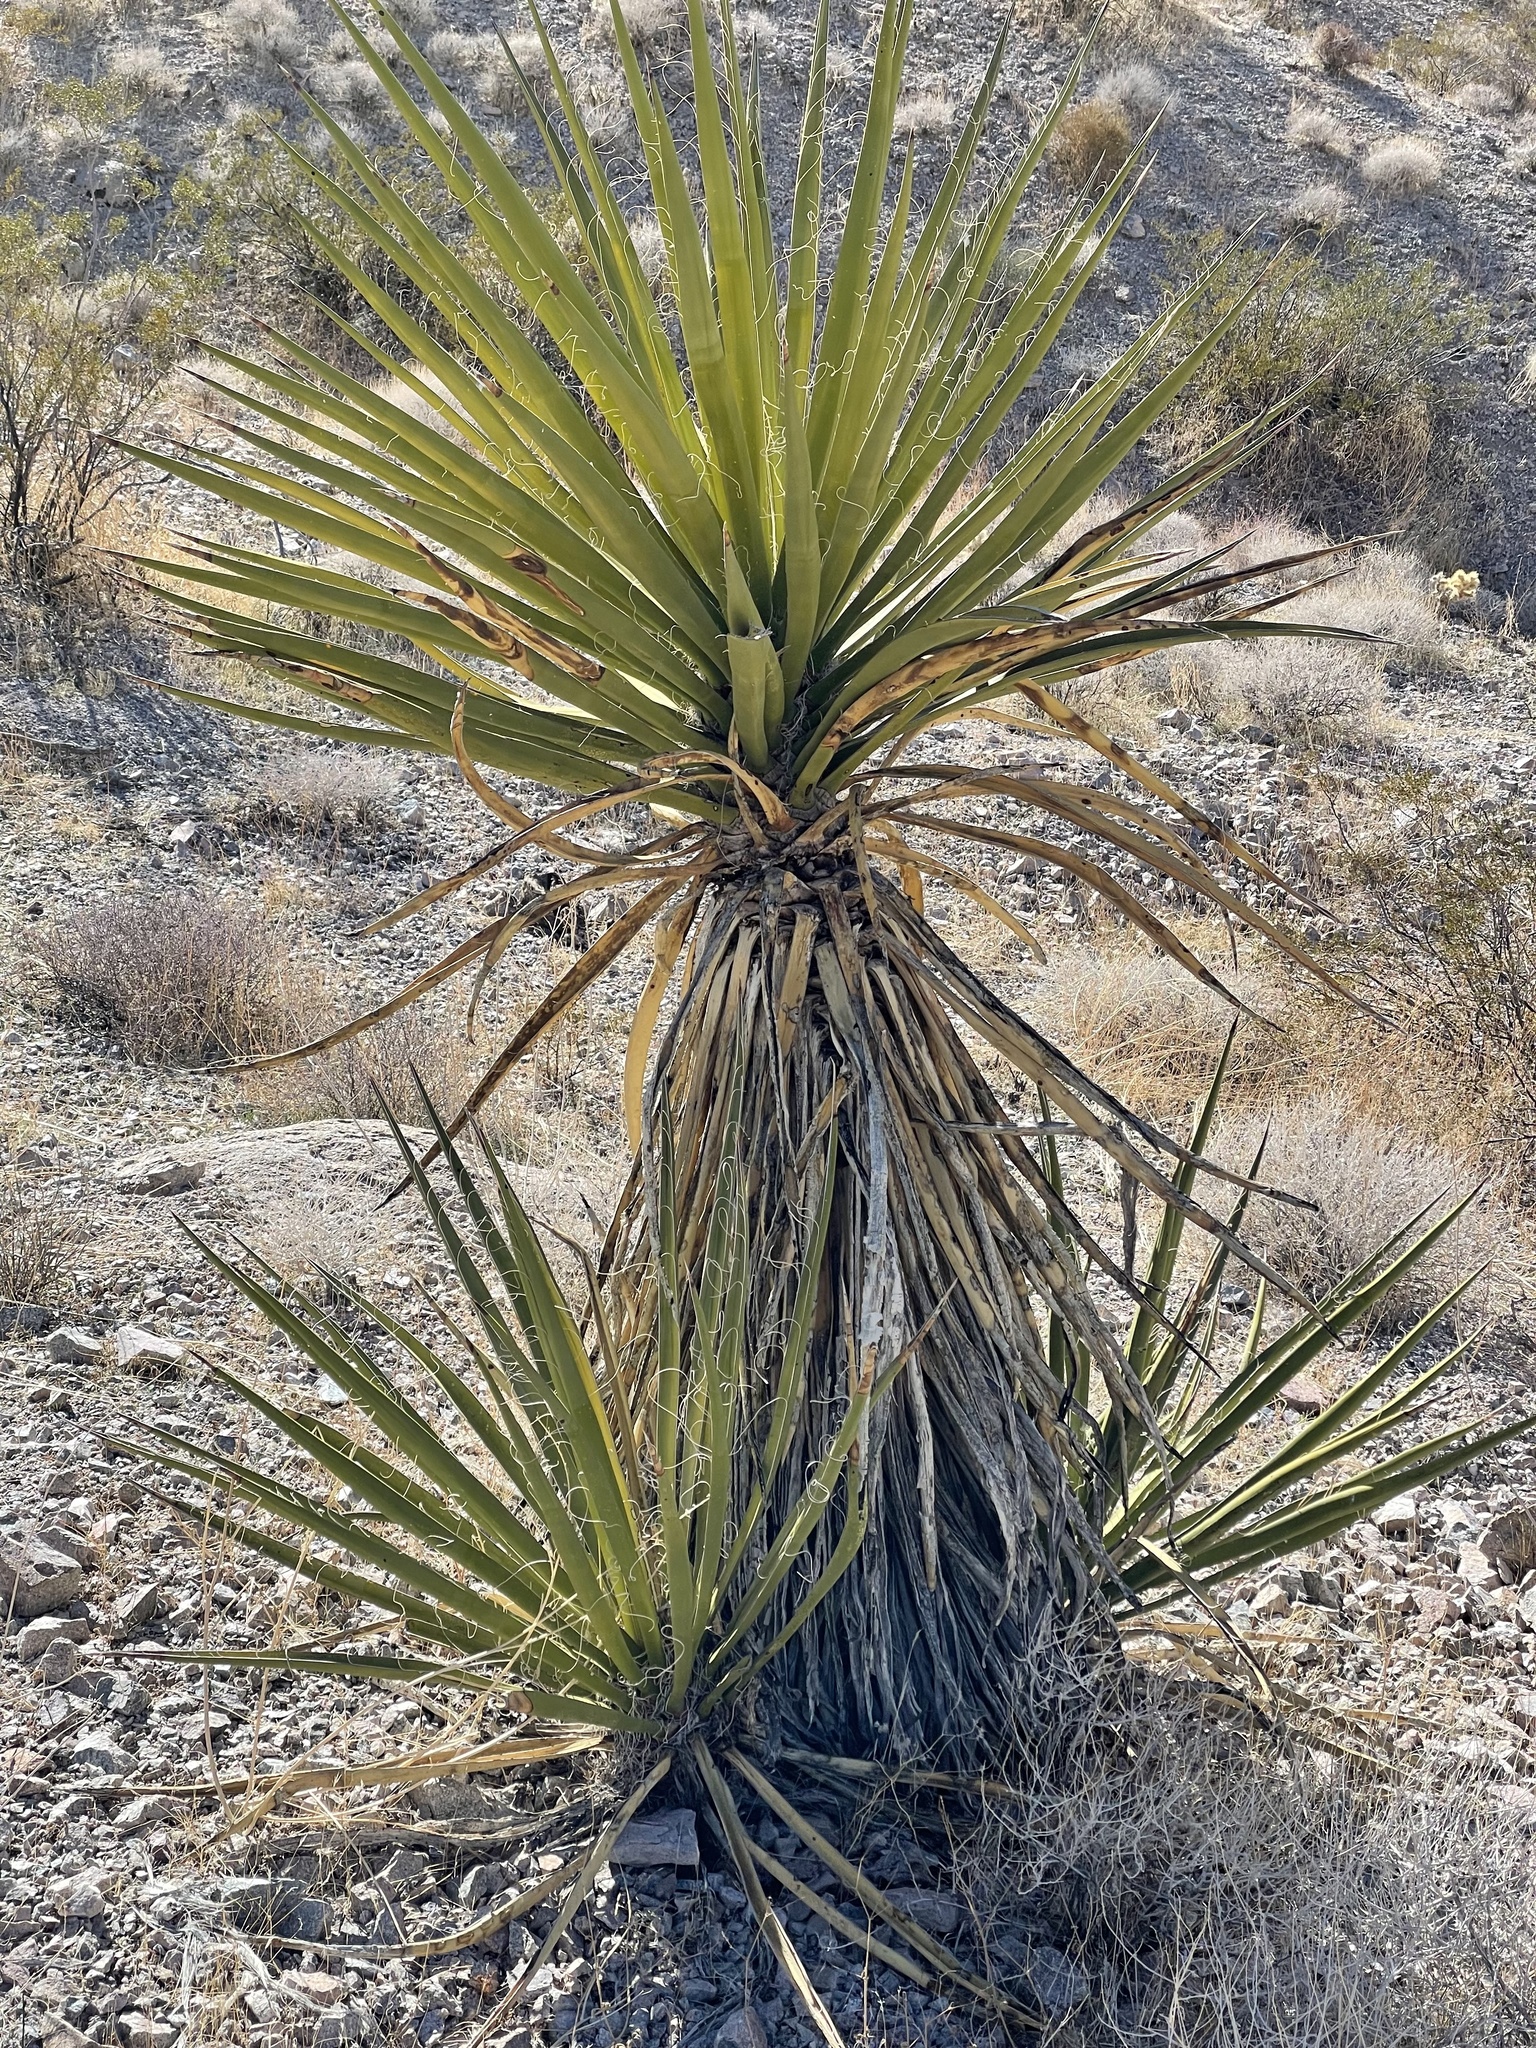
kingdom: Plantae
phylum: Tracheophyta
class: Liliopsida
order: Asparagales
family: Asparagaceae
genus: Yucca
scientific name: Yucca schidigera
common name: Mojave yucca
